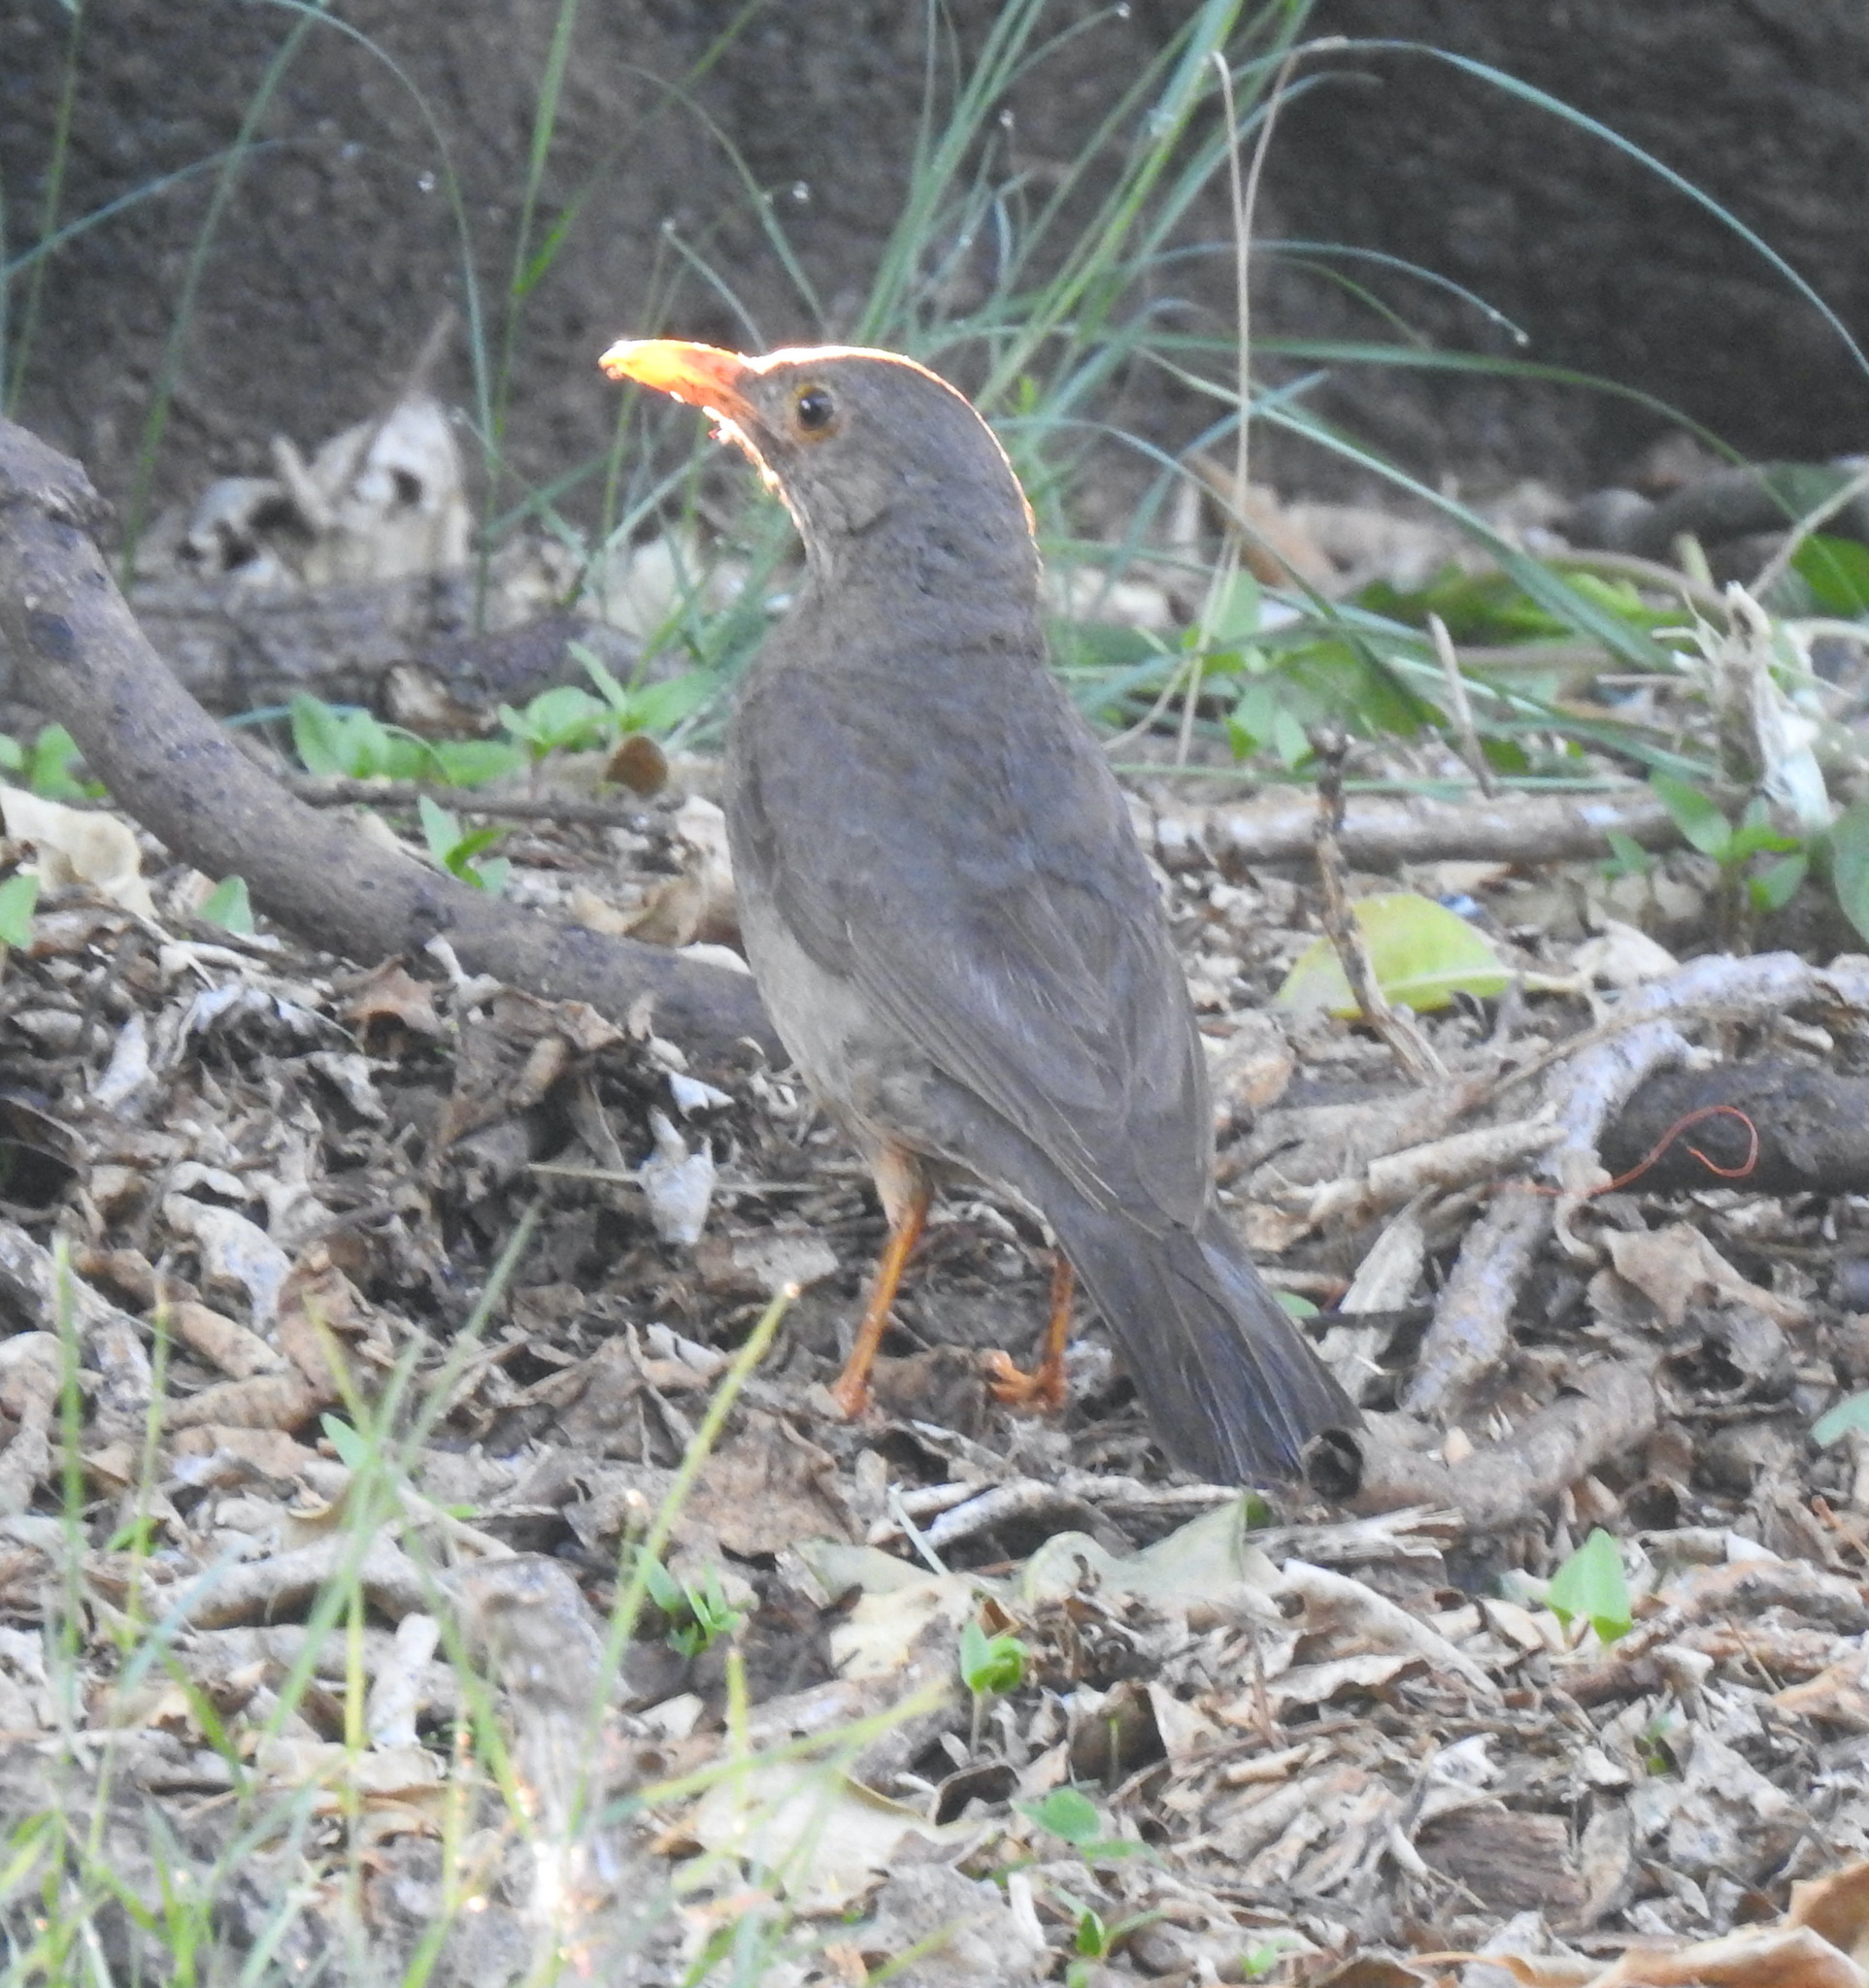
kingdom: Animalia
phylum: Chordata
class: Aves
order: Passeriformes
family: Turdidae
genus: Turdus
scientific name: Turdus smithi
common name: Karoo thrush
